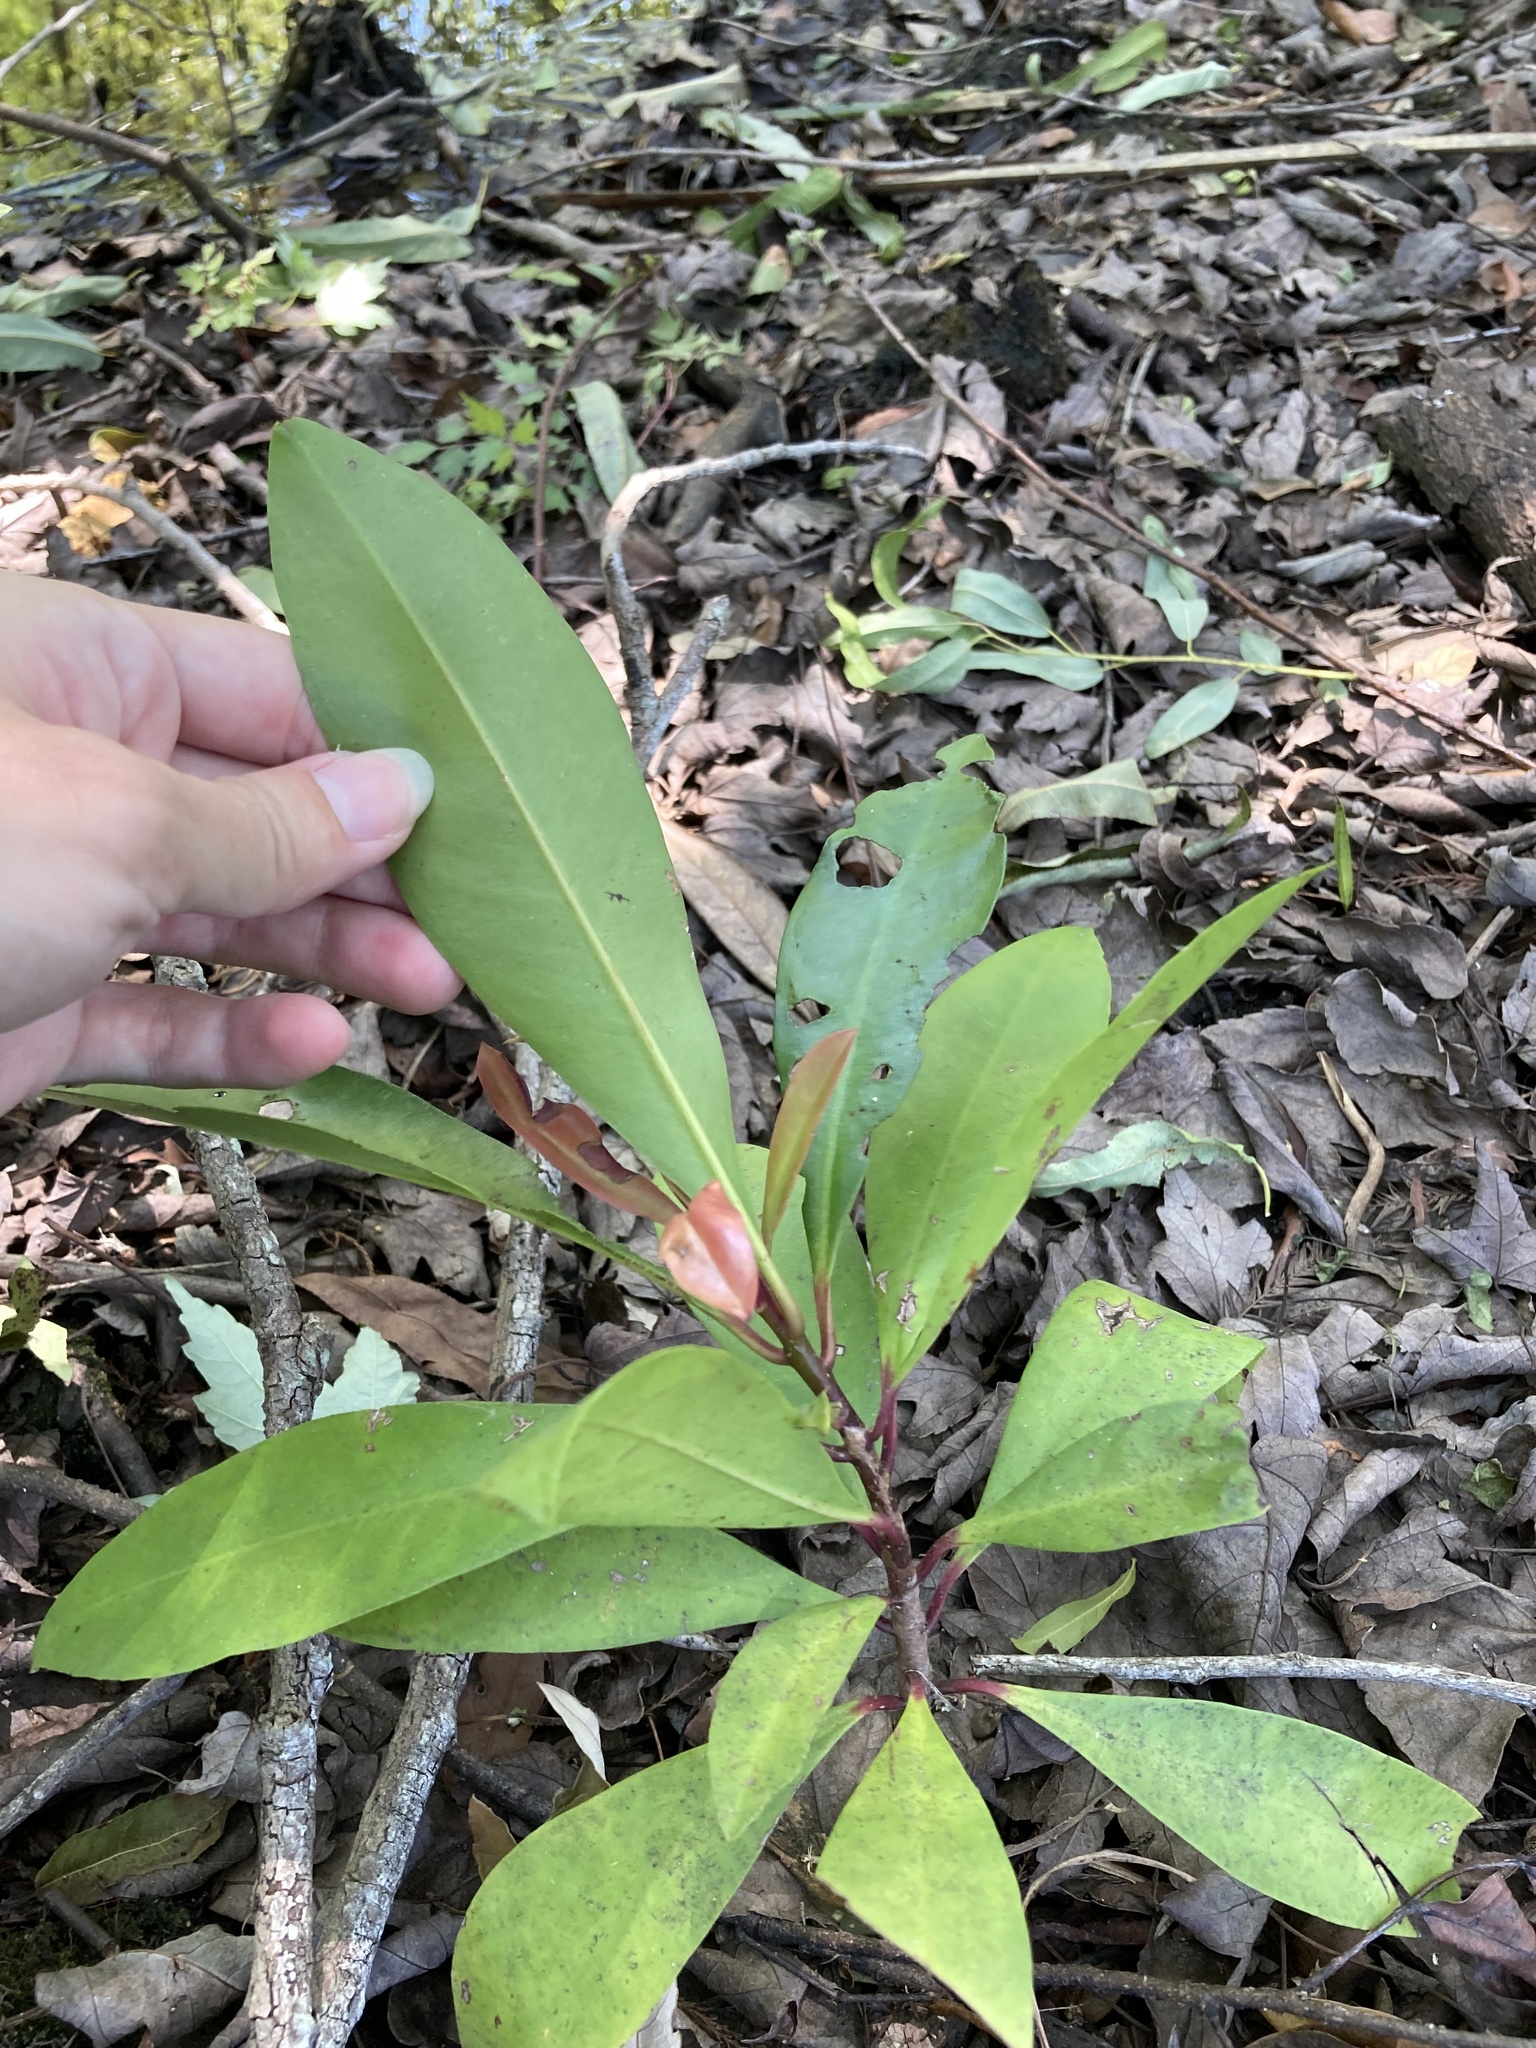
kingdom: Plantae
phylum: Tracheophyta
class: Magnoliopsida
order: Ericales
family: Primulaceae
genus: Ardisia
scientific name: Ardisia elliptica
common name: Shoebutton
